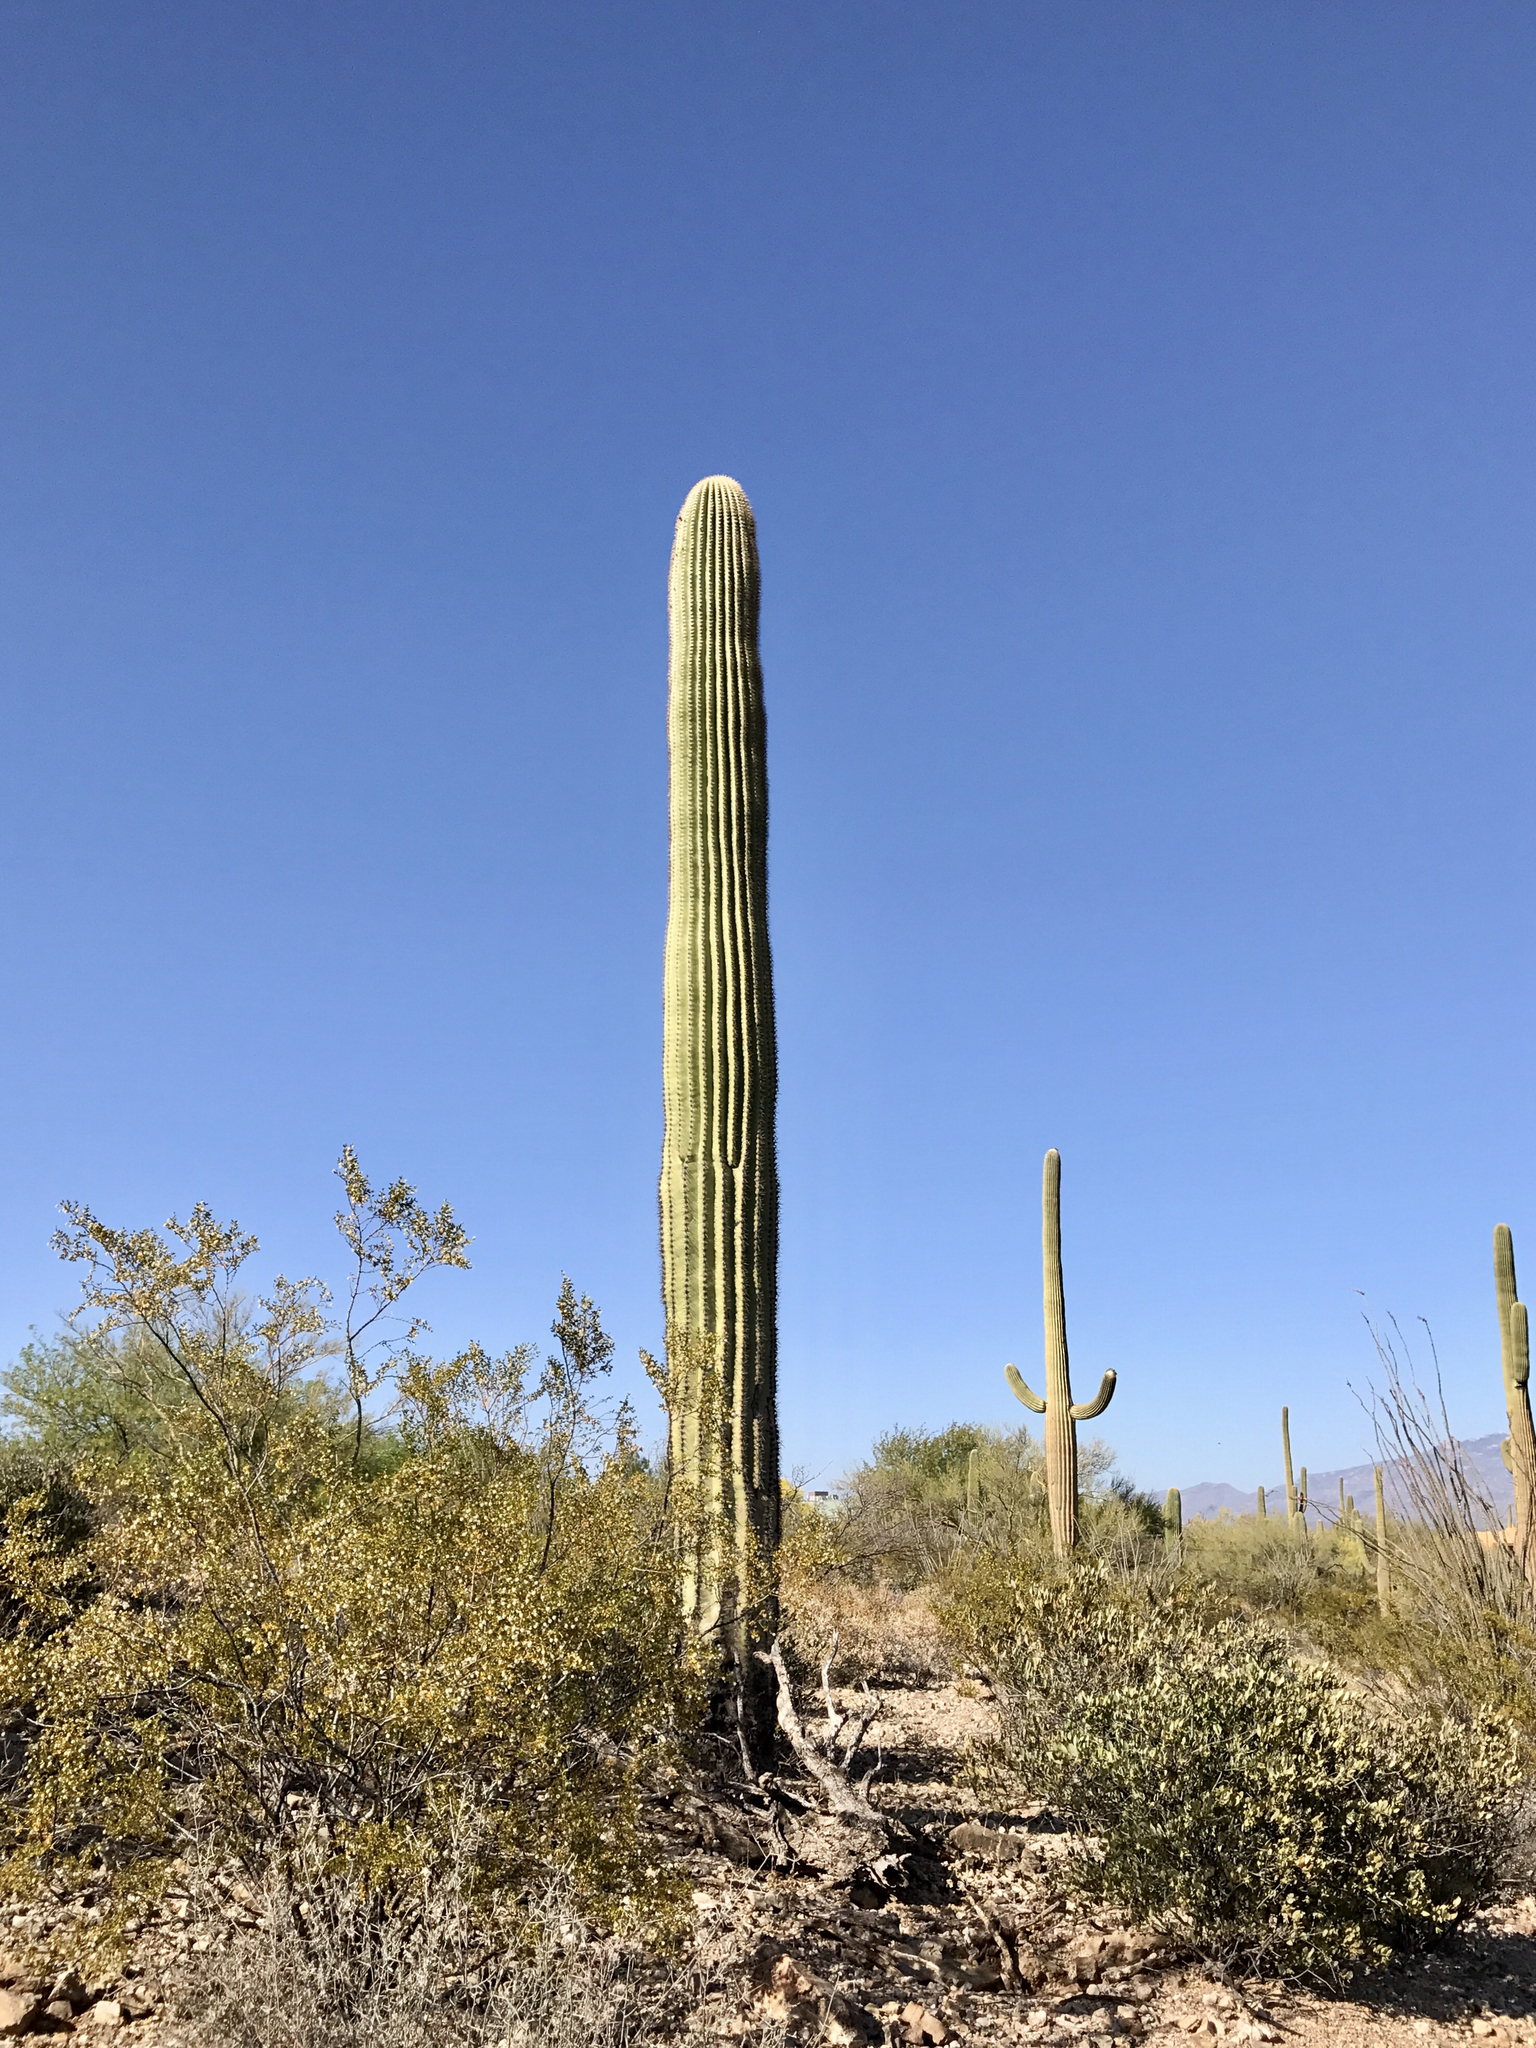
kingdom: Plantae
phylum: Tracheophyta
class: Magnoliopsida
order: Caryophyllales
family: Cactaceae
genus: Carnegiea
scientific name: Carnegiea gigantea
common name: Saguaro
